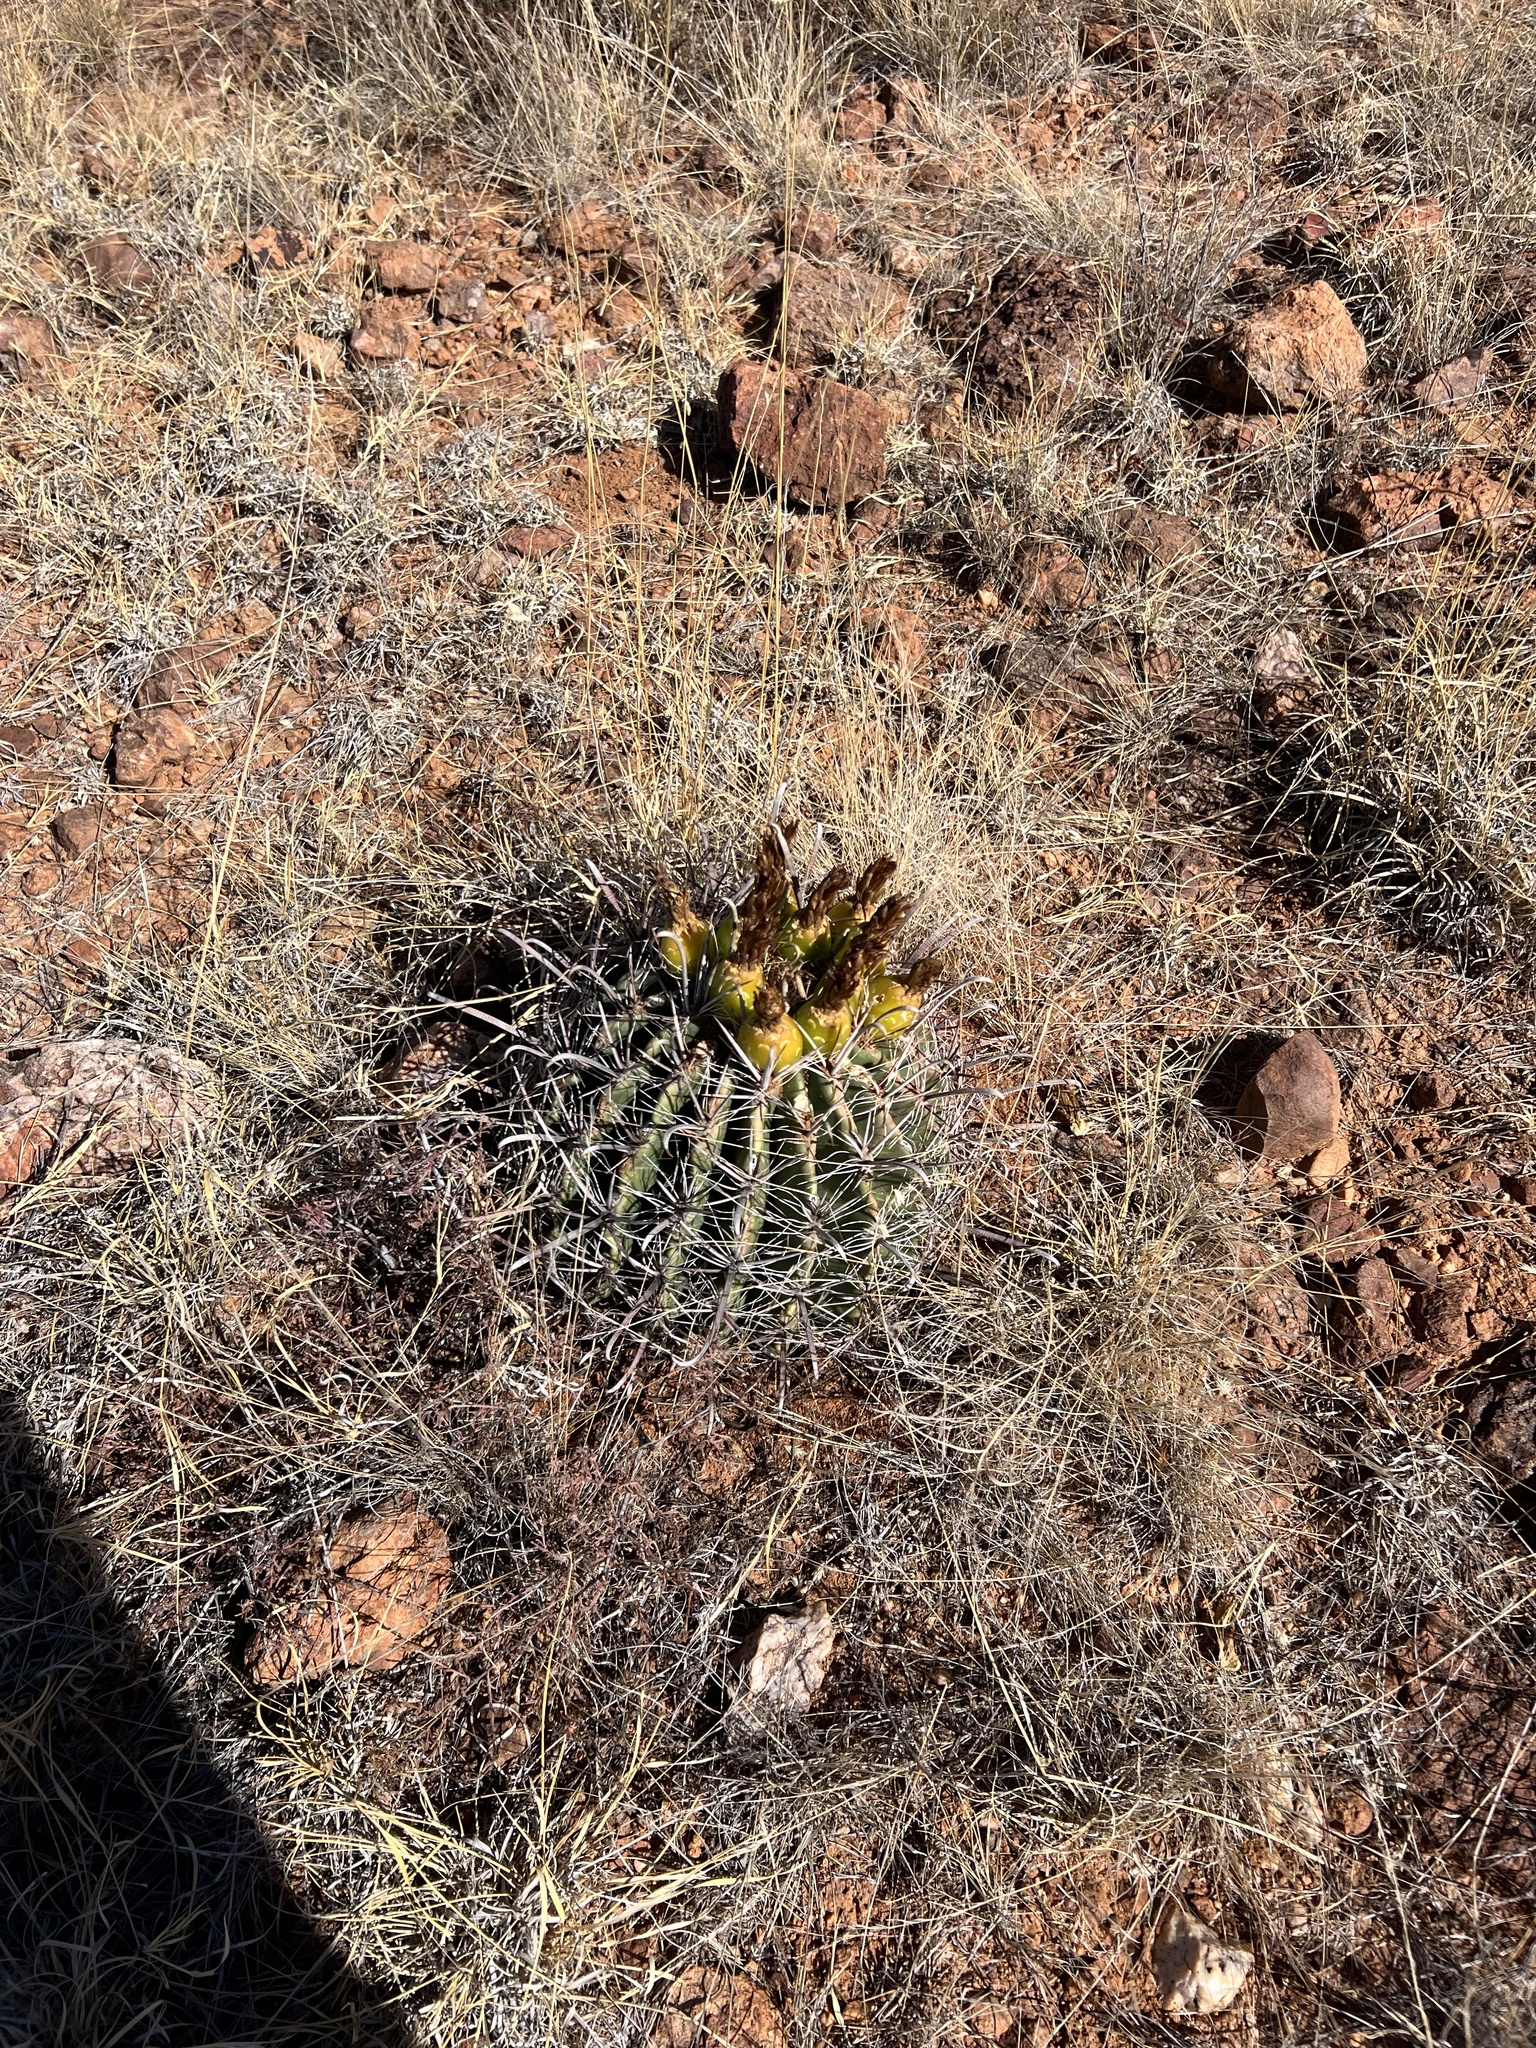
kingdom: Plantae
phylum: Tracheophyta
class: Magnoliopsida
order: Caryophyllales
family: Cactaceae
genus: Ferocactus
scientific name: Ferocactus wislizeni
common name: Candy barrel cactus
